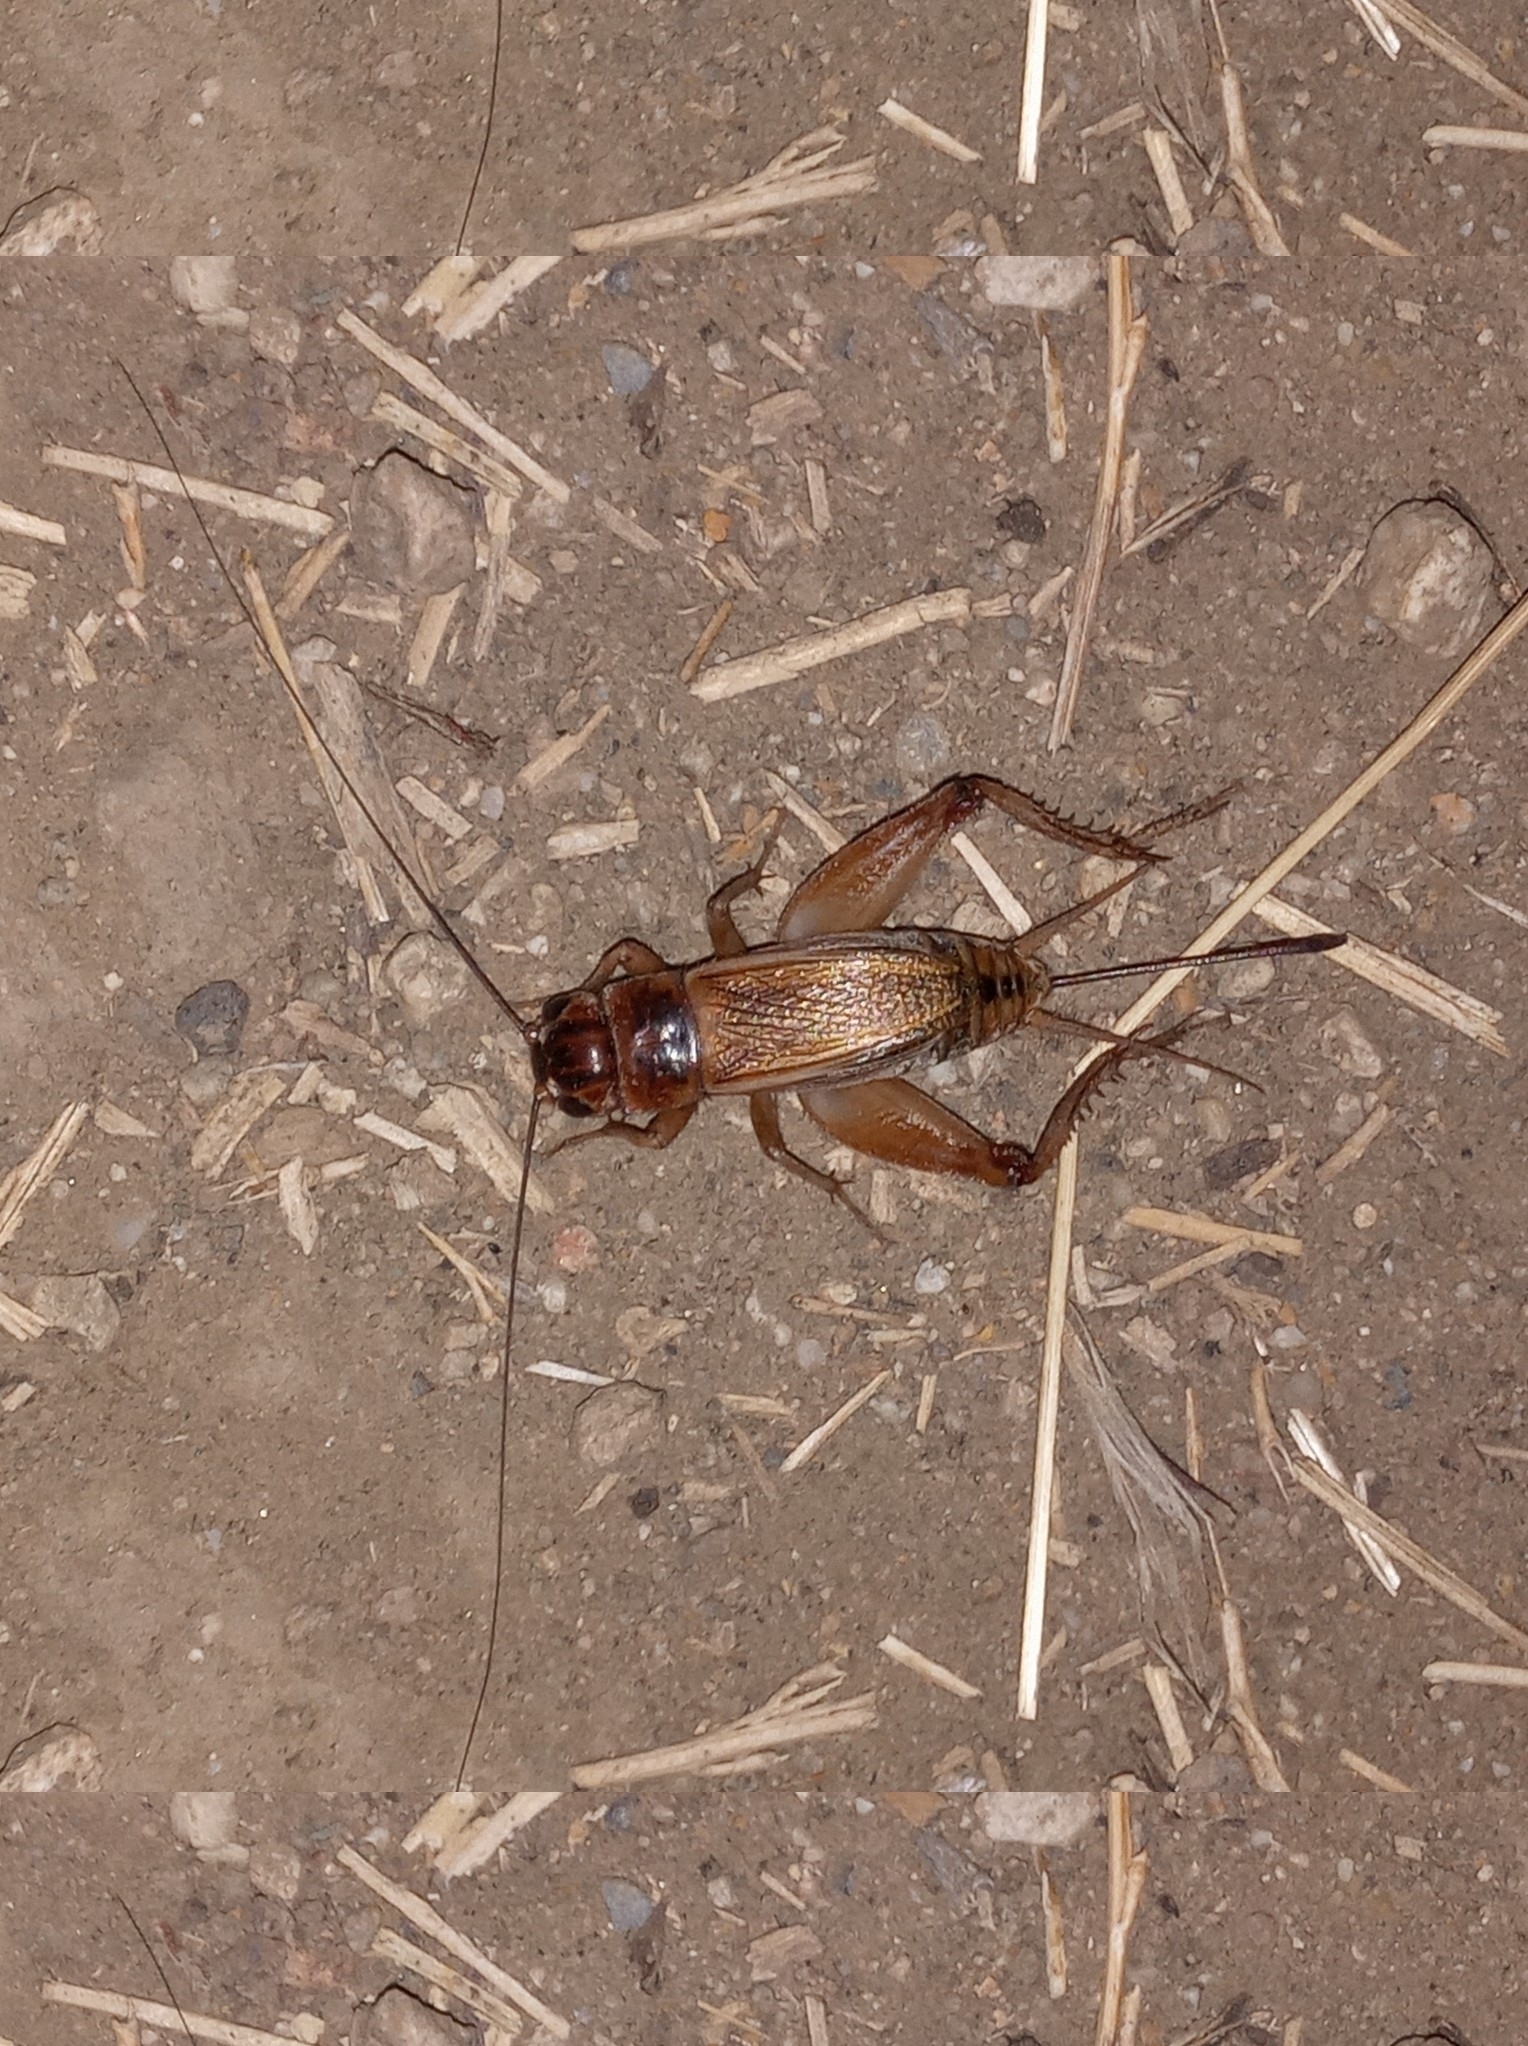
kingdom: Animalia
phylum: Arthropoda
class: Insecta
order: Orthoptera
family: Gryllidae
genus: Gryllus
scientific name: Gryllus
